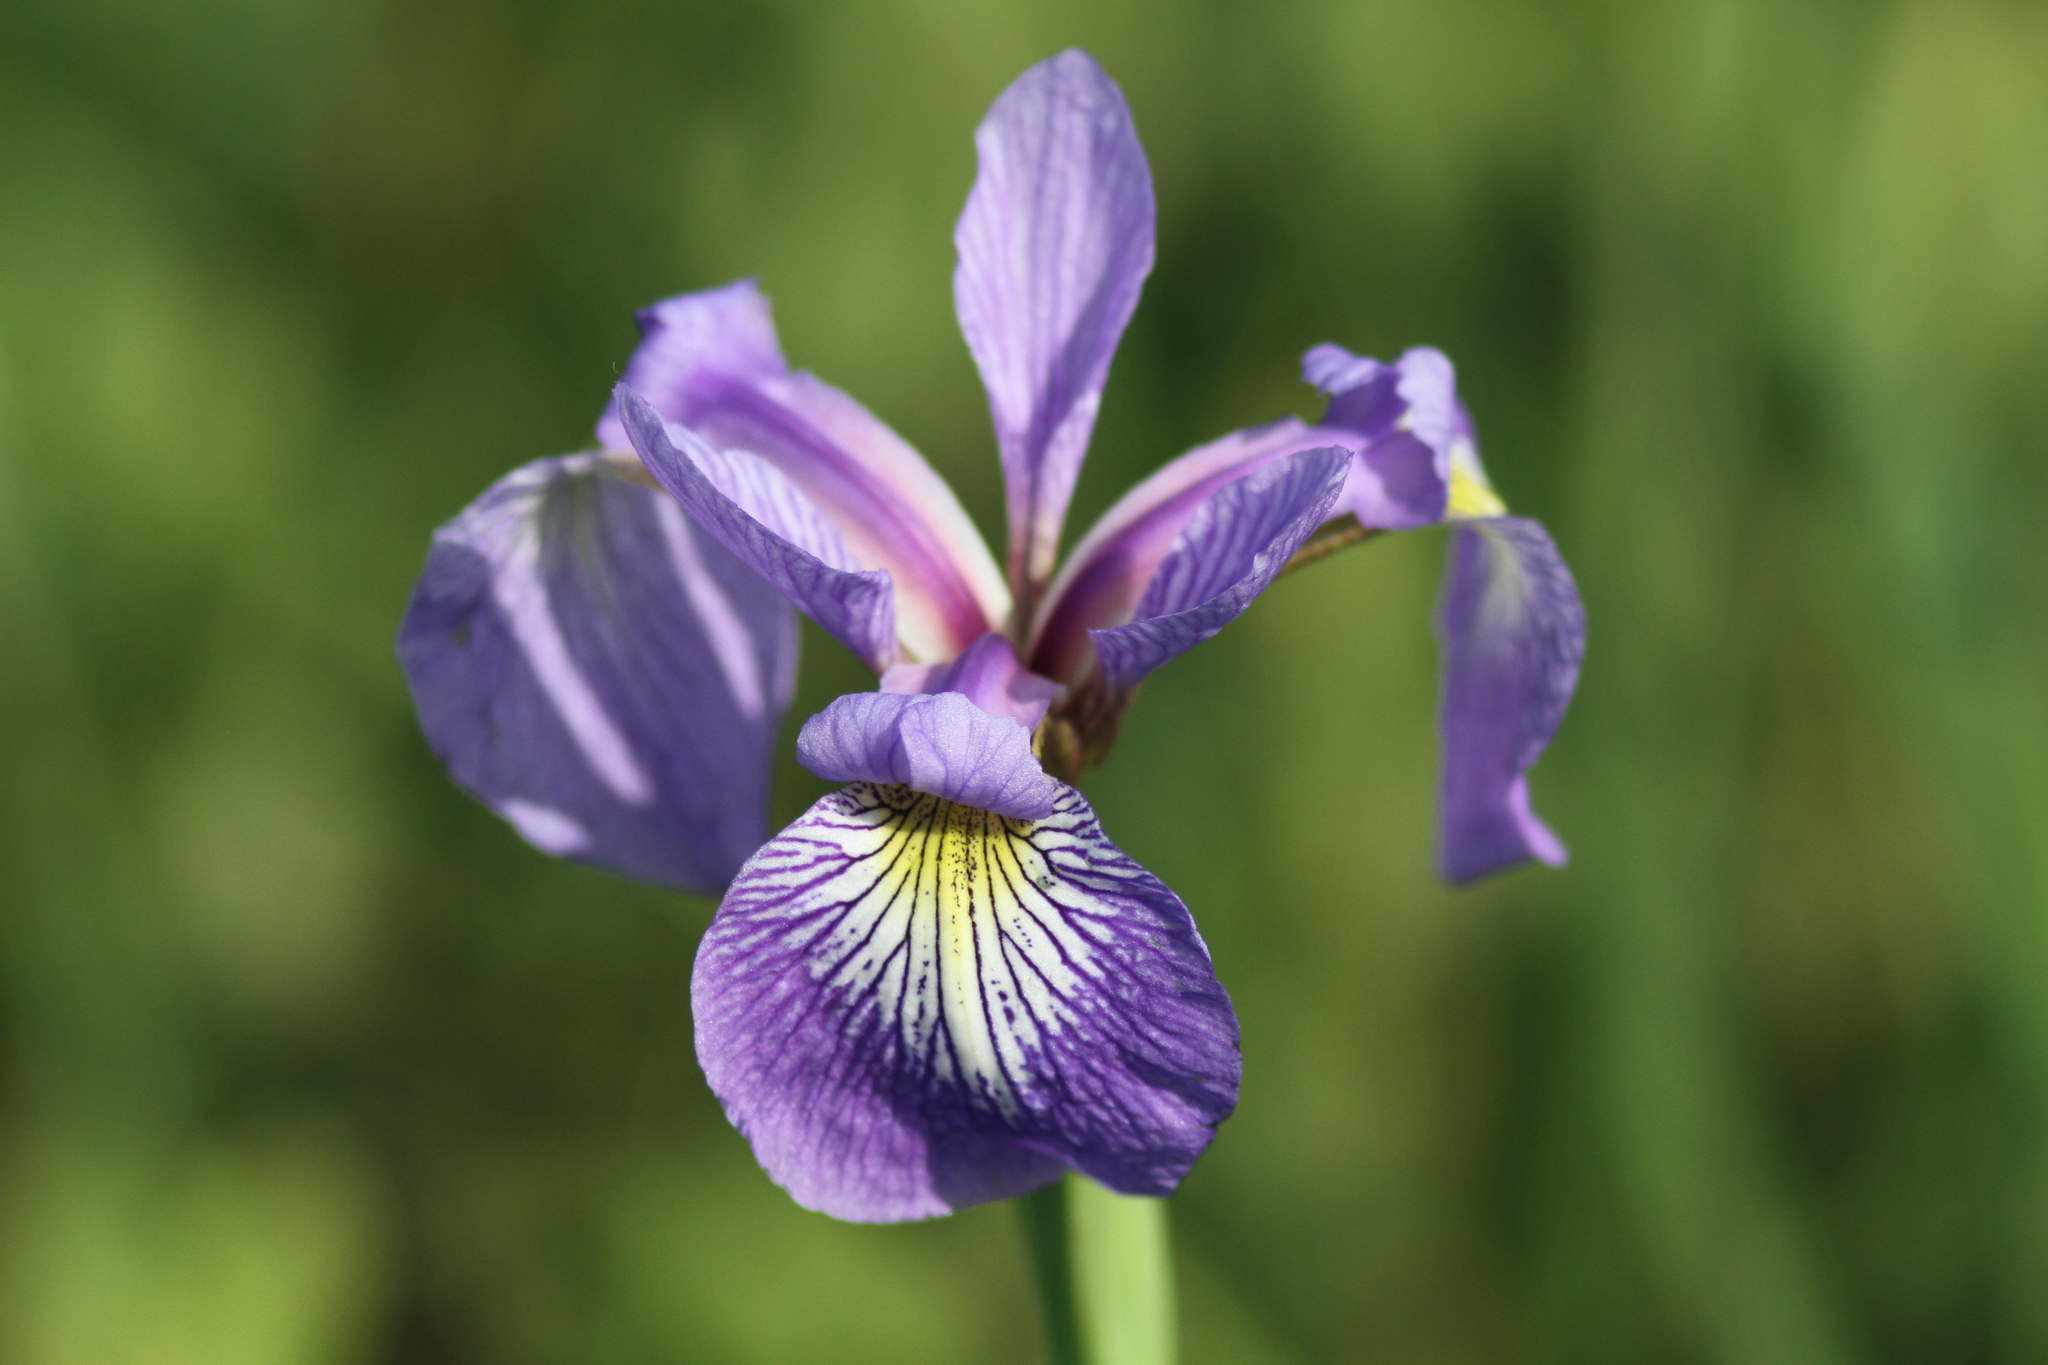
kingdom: Plantae
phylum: Tracheophyta
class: Liliopsida
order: Asparagales
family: Iridaceae
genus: Iris
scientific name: Iris versicolor
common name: Purple iris
